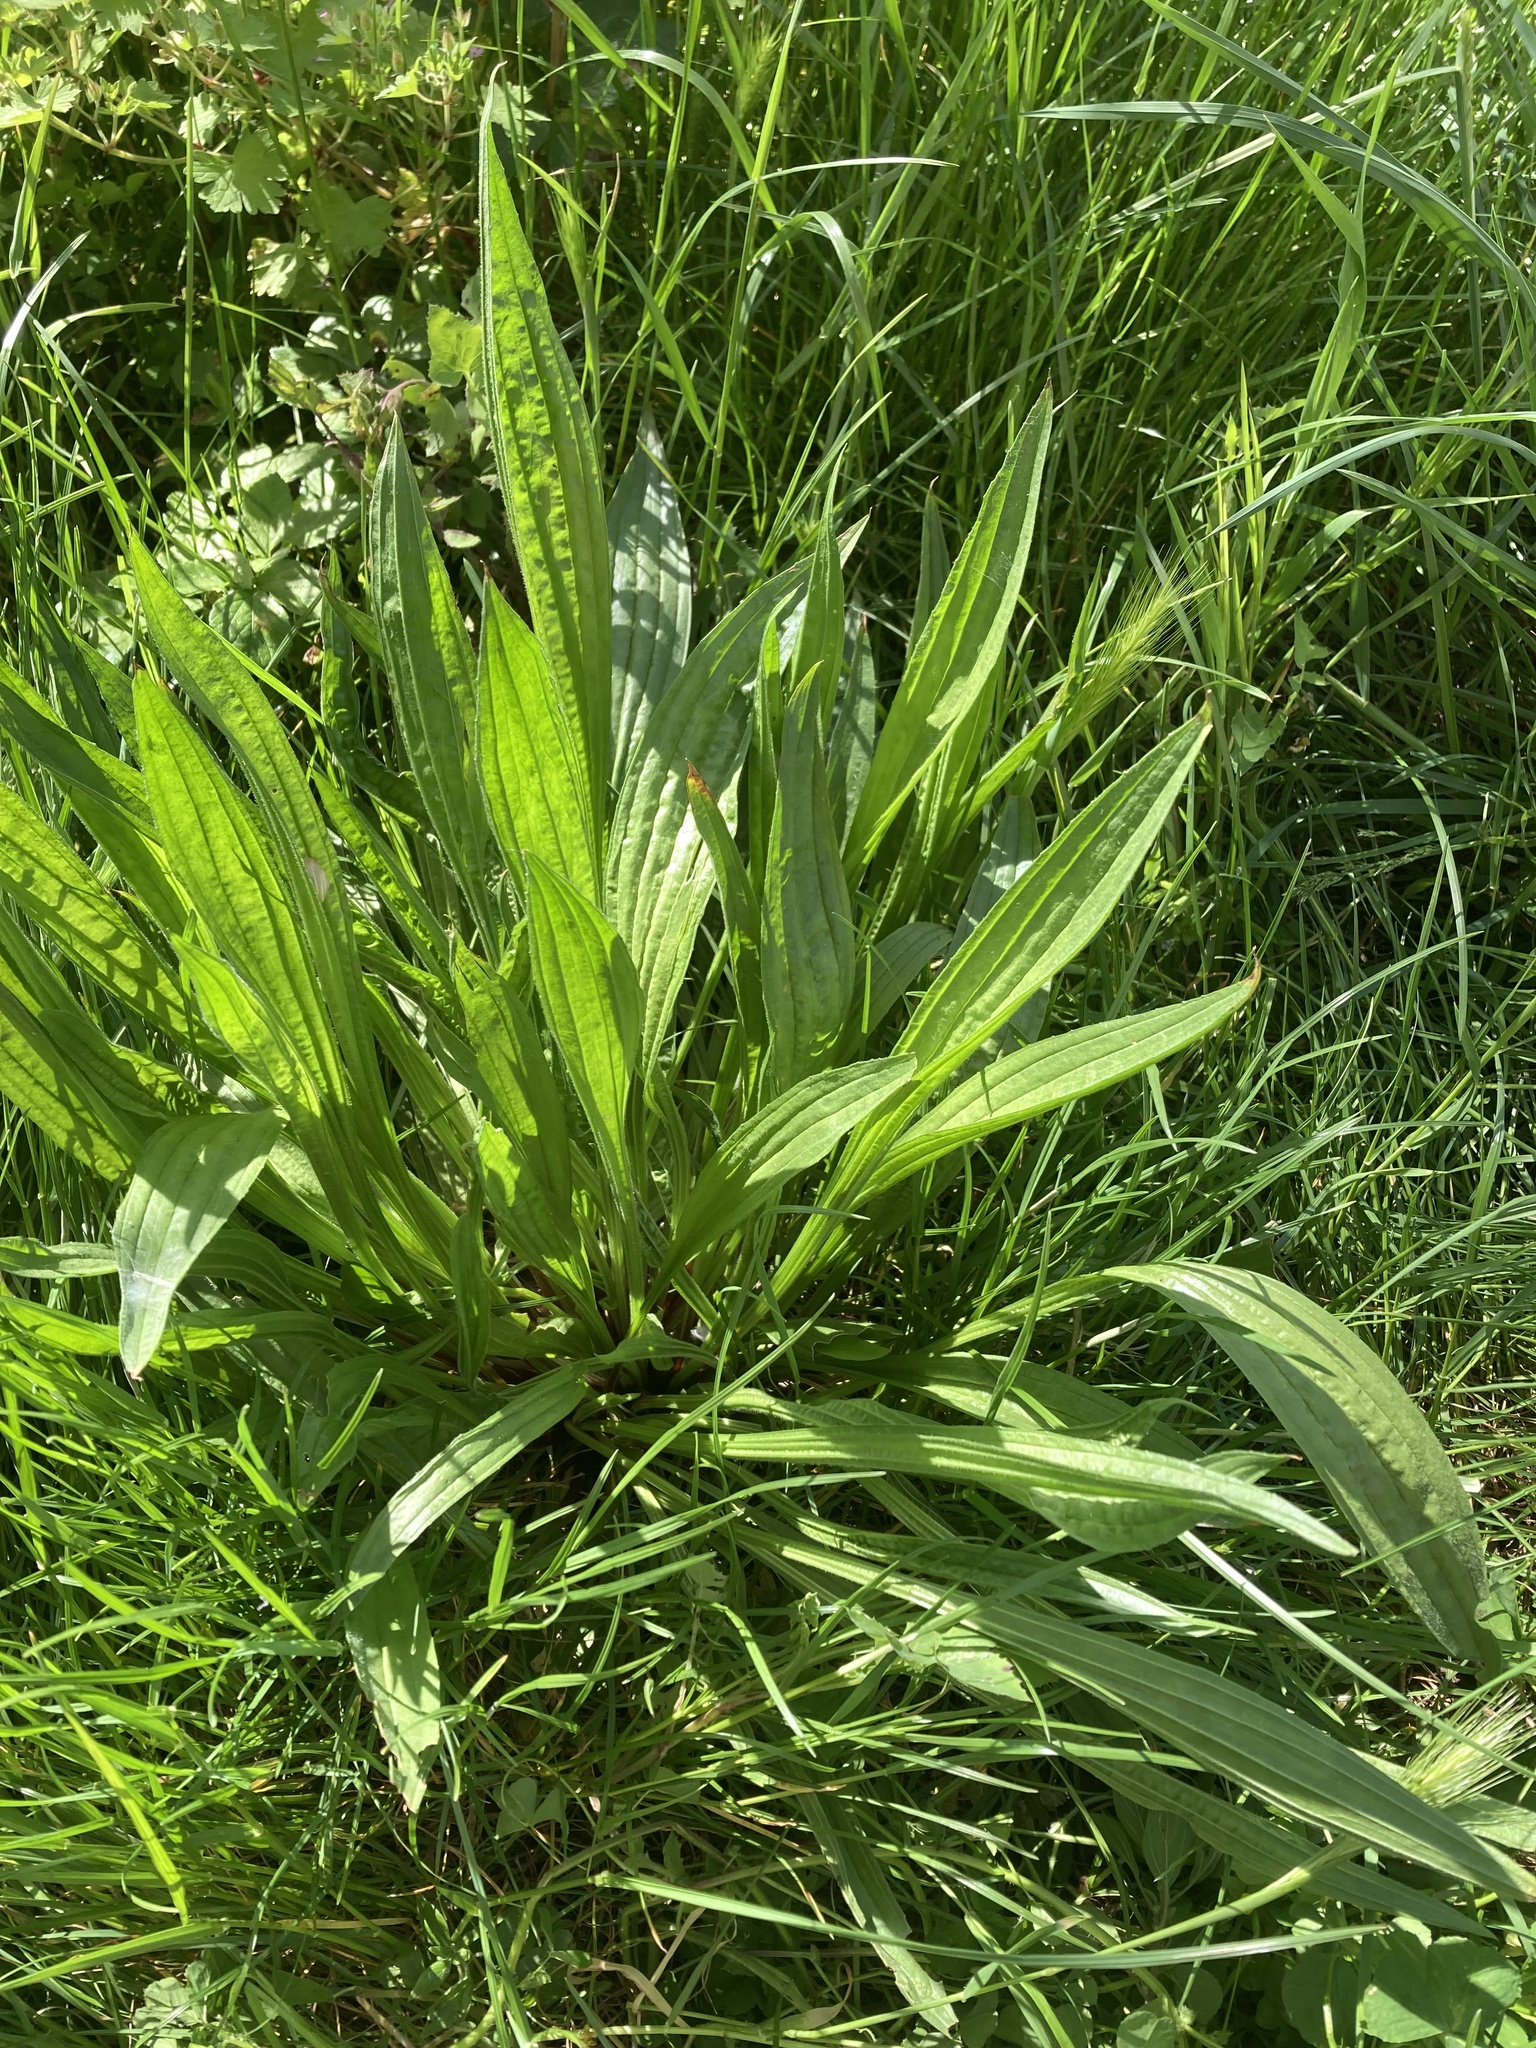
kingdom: Plantae
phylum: Tracheophyta
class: Magnoliopsida
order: Lamiales
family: Plantaginaceae
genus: Plantago
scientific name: Plantago lanceolata
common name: Ribwort plantain
